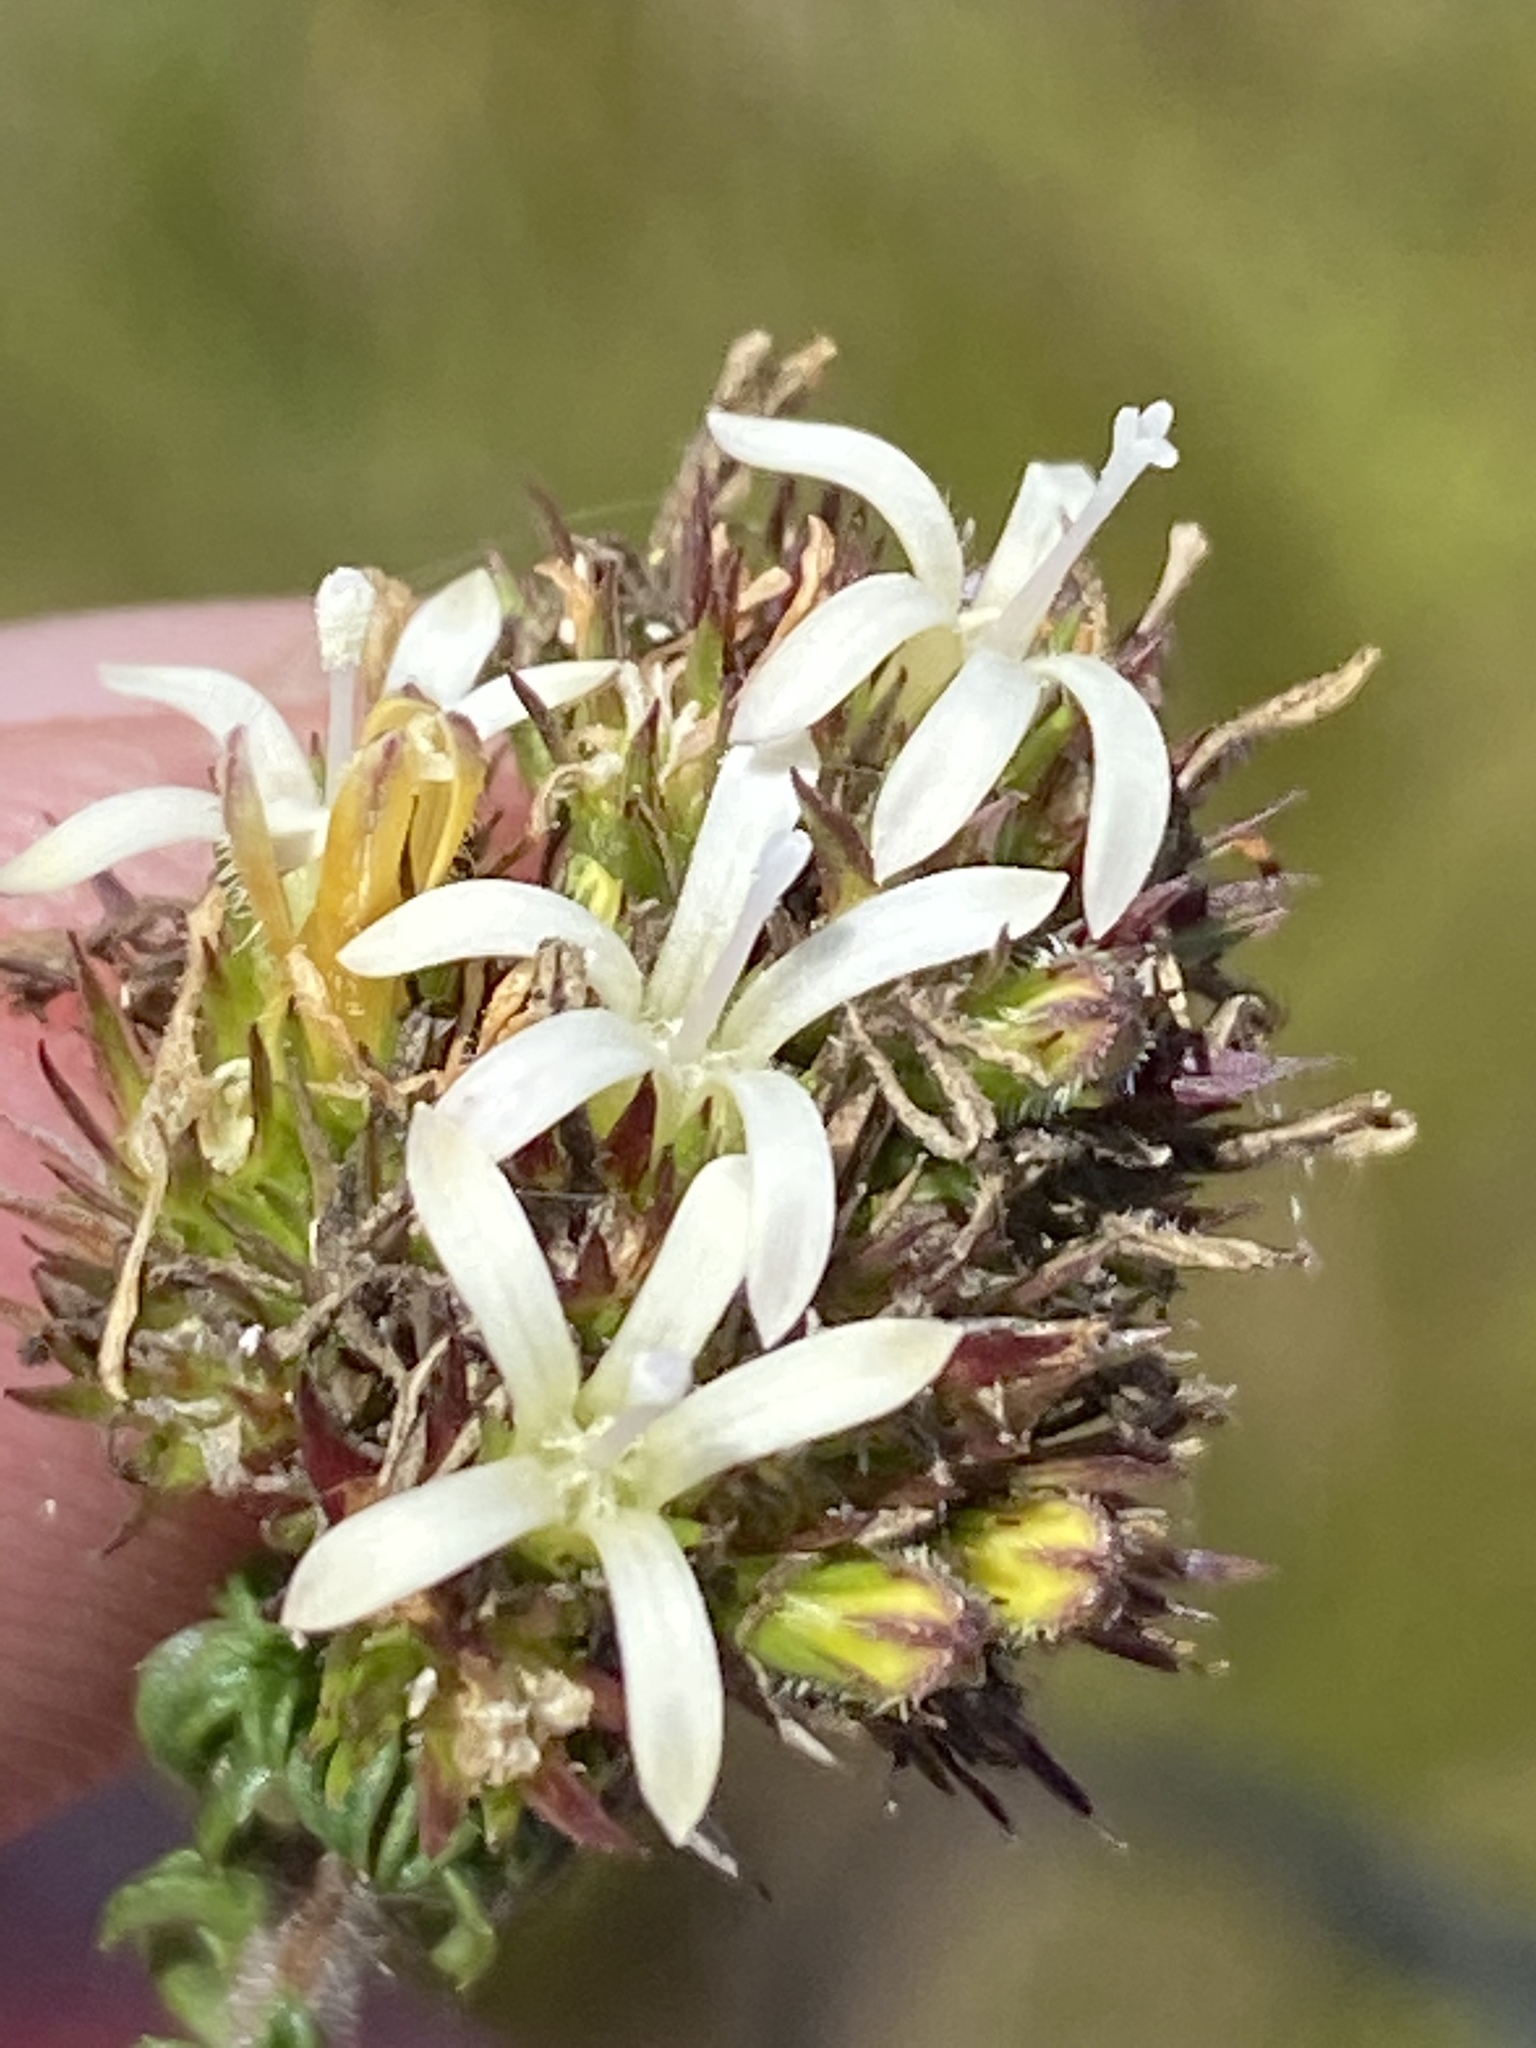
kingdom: Plantae
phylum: Tracheophyta
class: Magnoliopsida
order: Asterales
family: Campanulaceae
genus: Wahlenbergia
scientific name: Wahlenbergia desmantha
